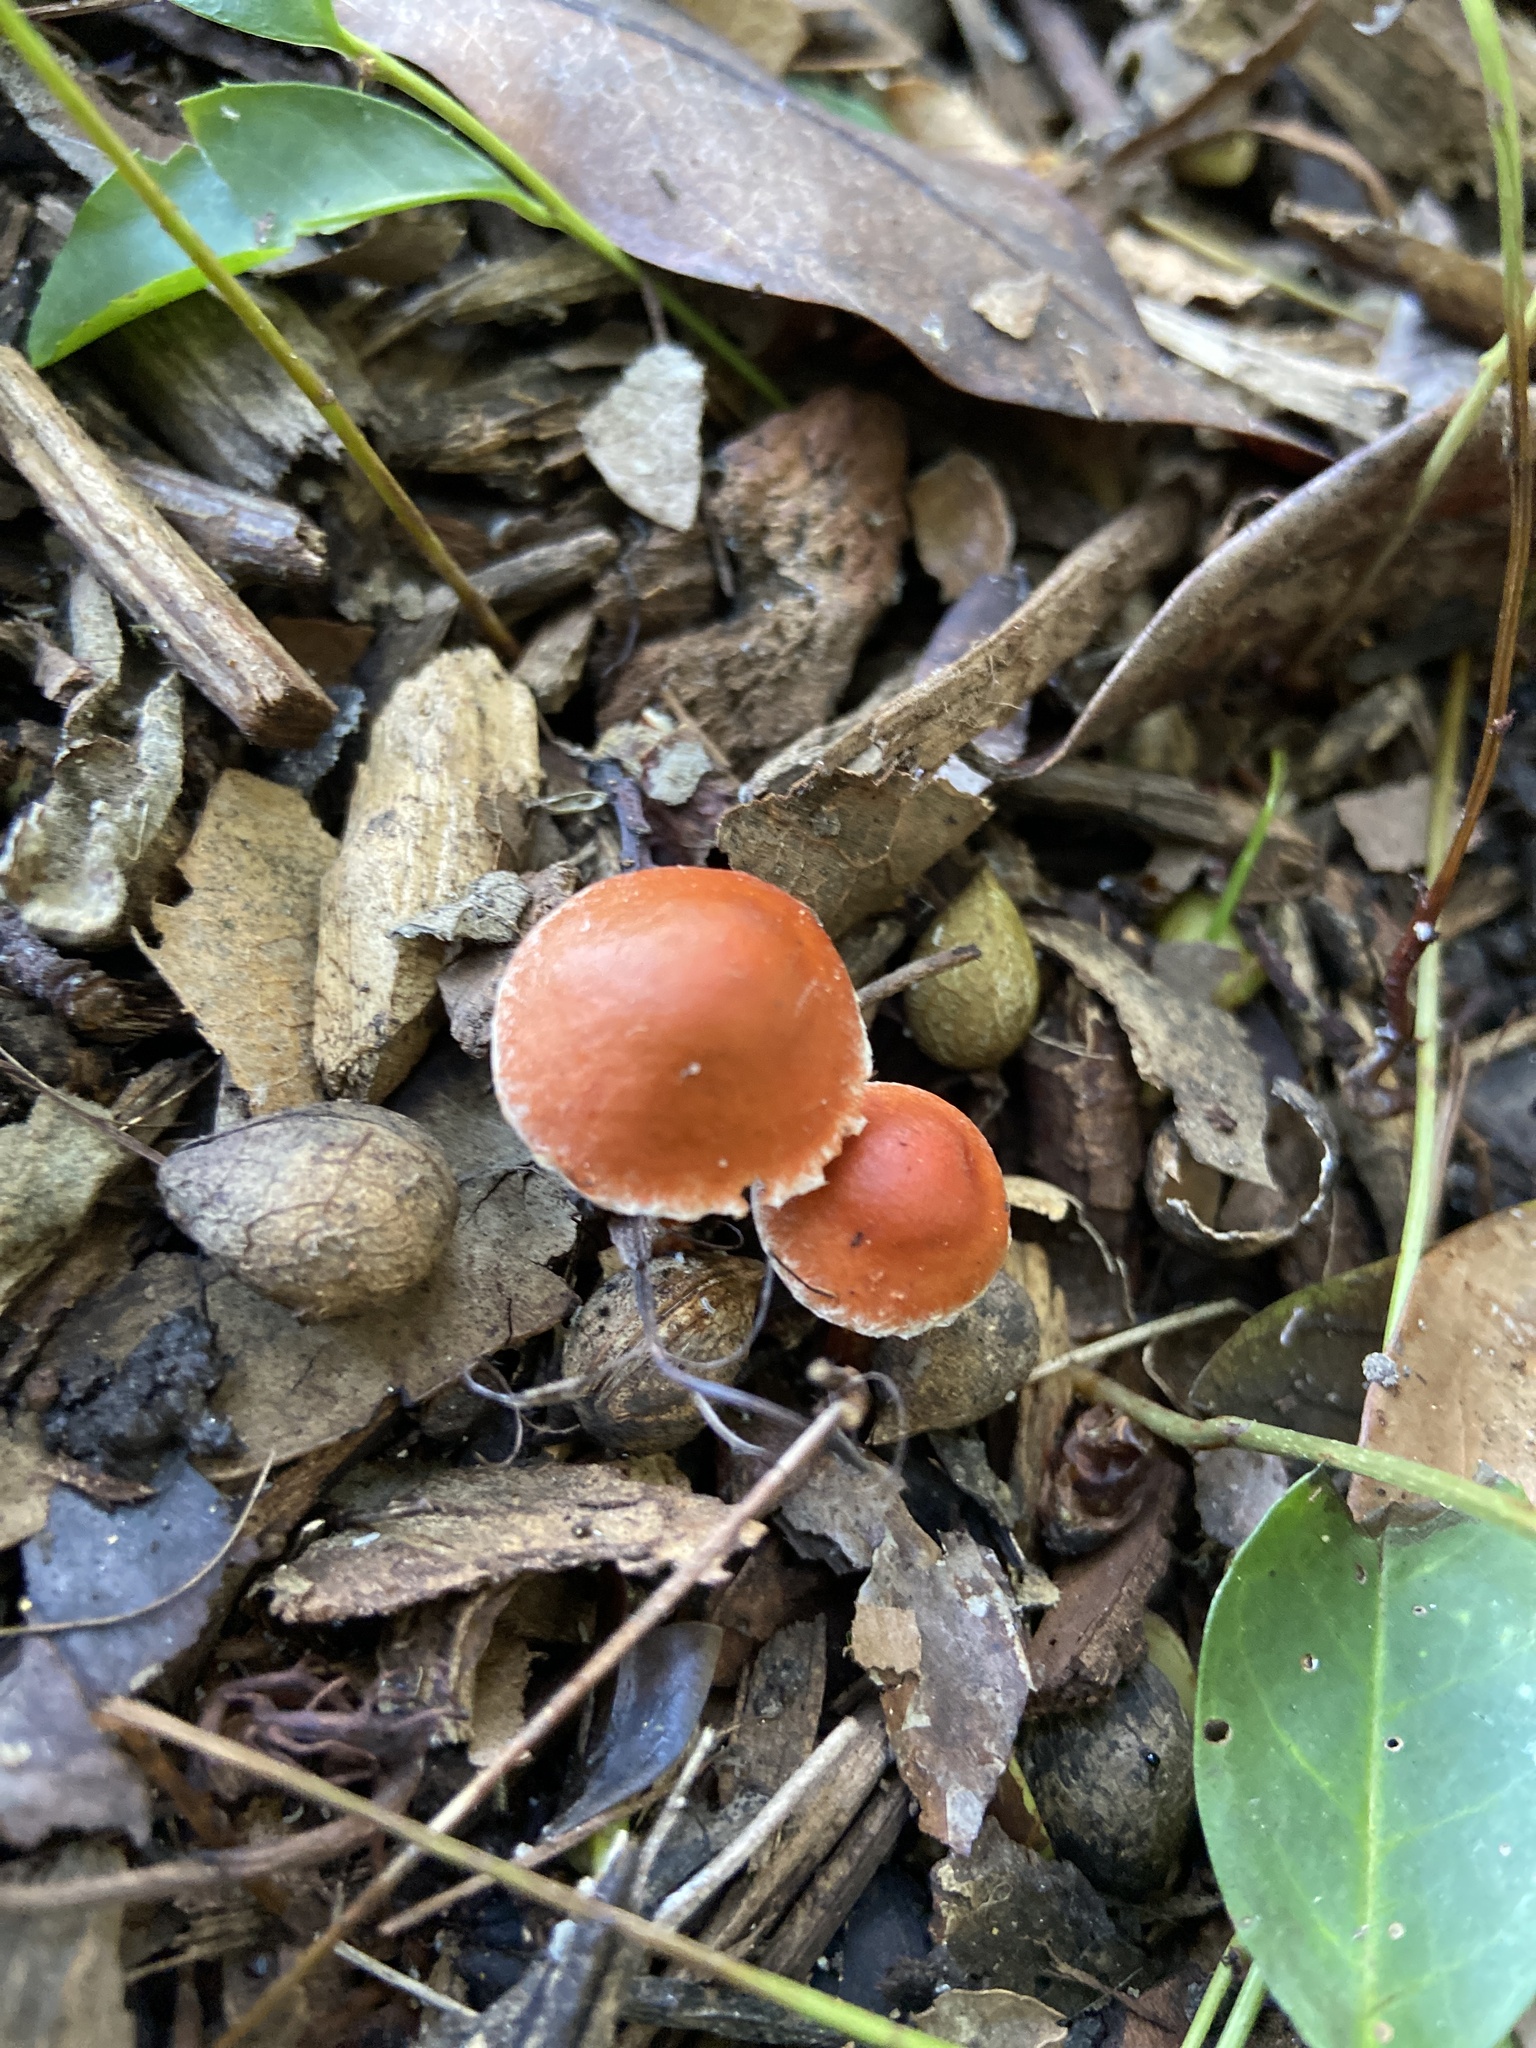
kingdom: Fungi
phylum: Basidiomycota
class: Agaricomycetes
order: Agaricales
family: Strophariaceae
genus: Leratiomyces
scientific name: Leratiomyces ceres
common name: Redlead roundhead
